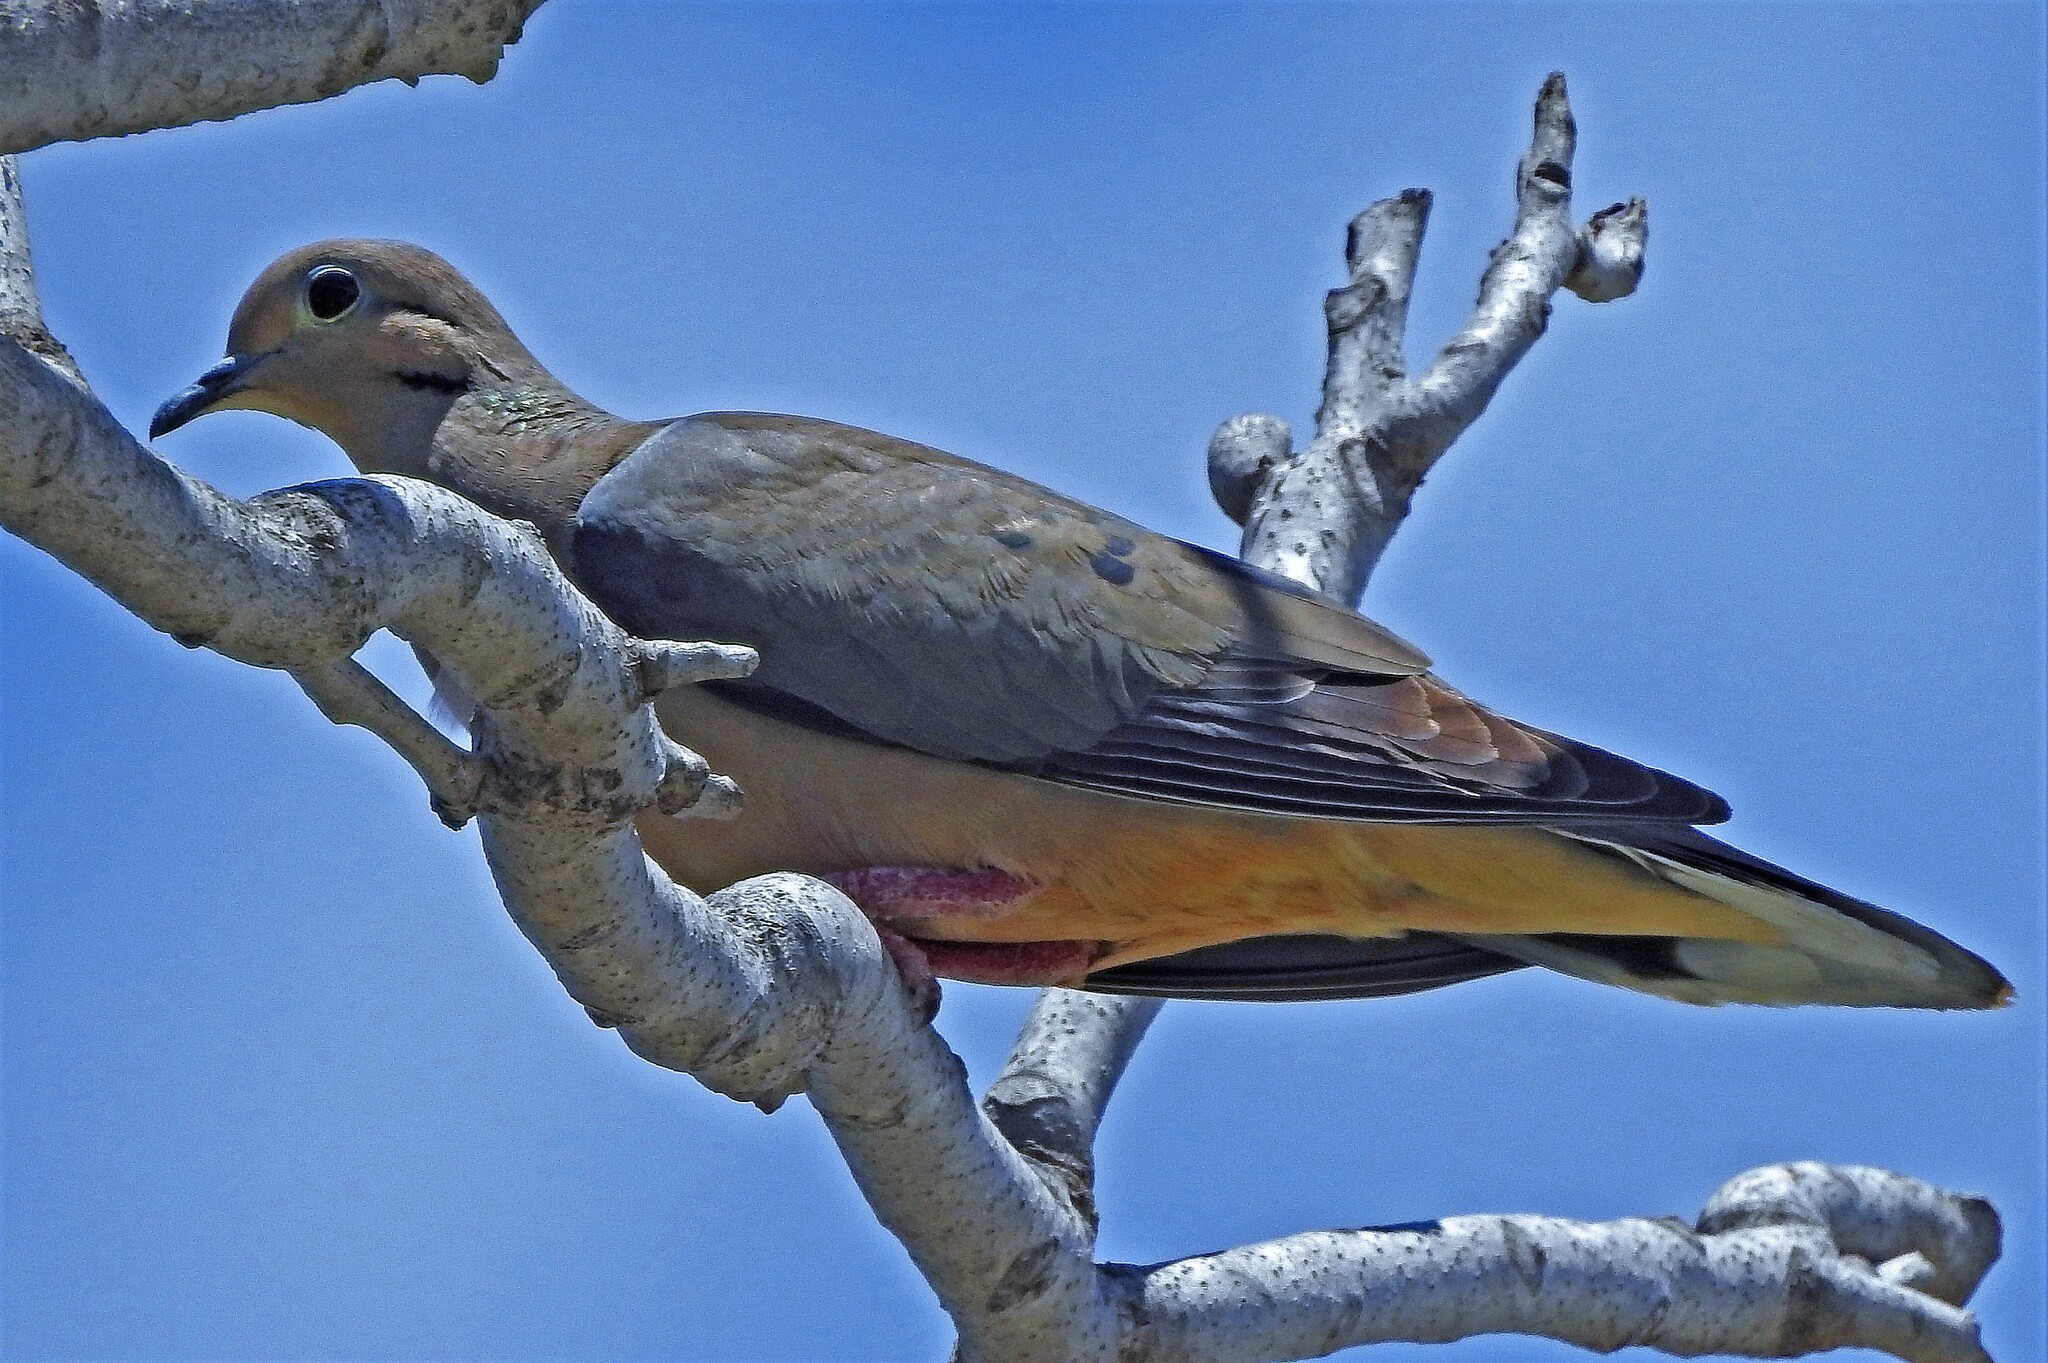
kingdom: Animalia
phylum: Chordata
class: Aves
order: Columbiformes
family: Columbidae
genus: Zenaida
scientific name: Zenaida auriculata
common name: Eared dove
